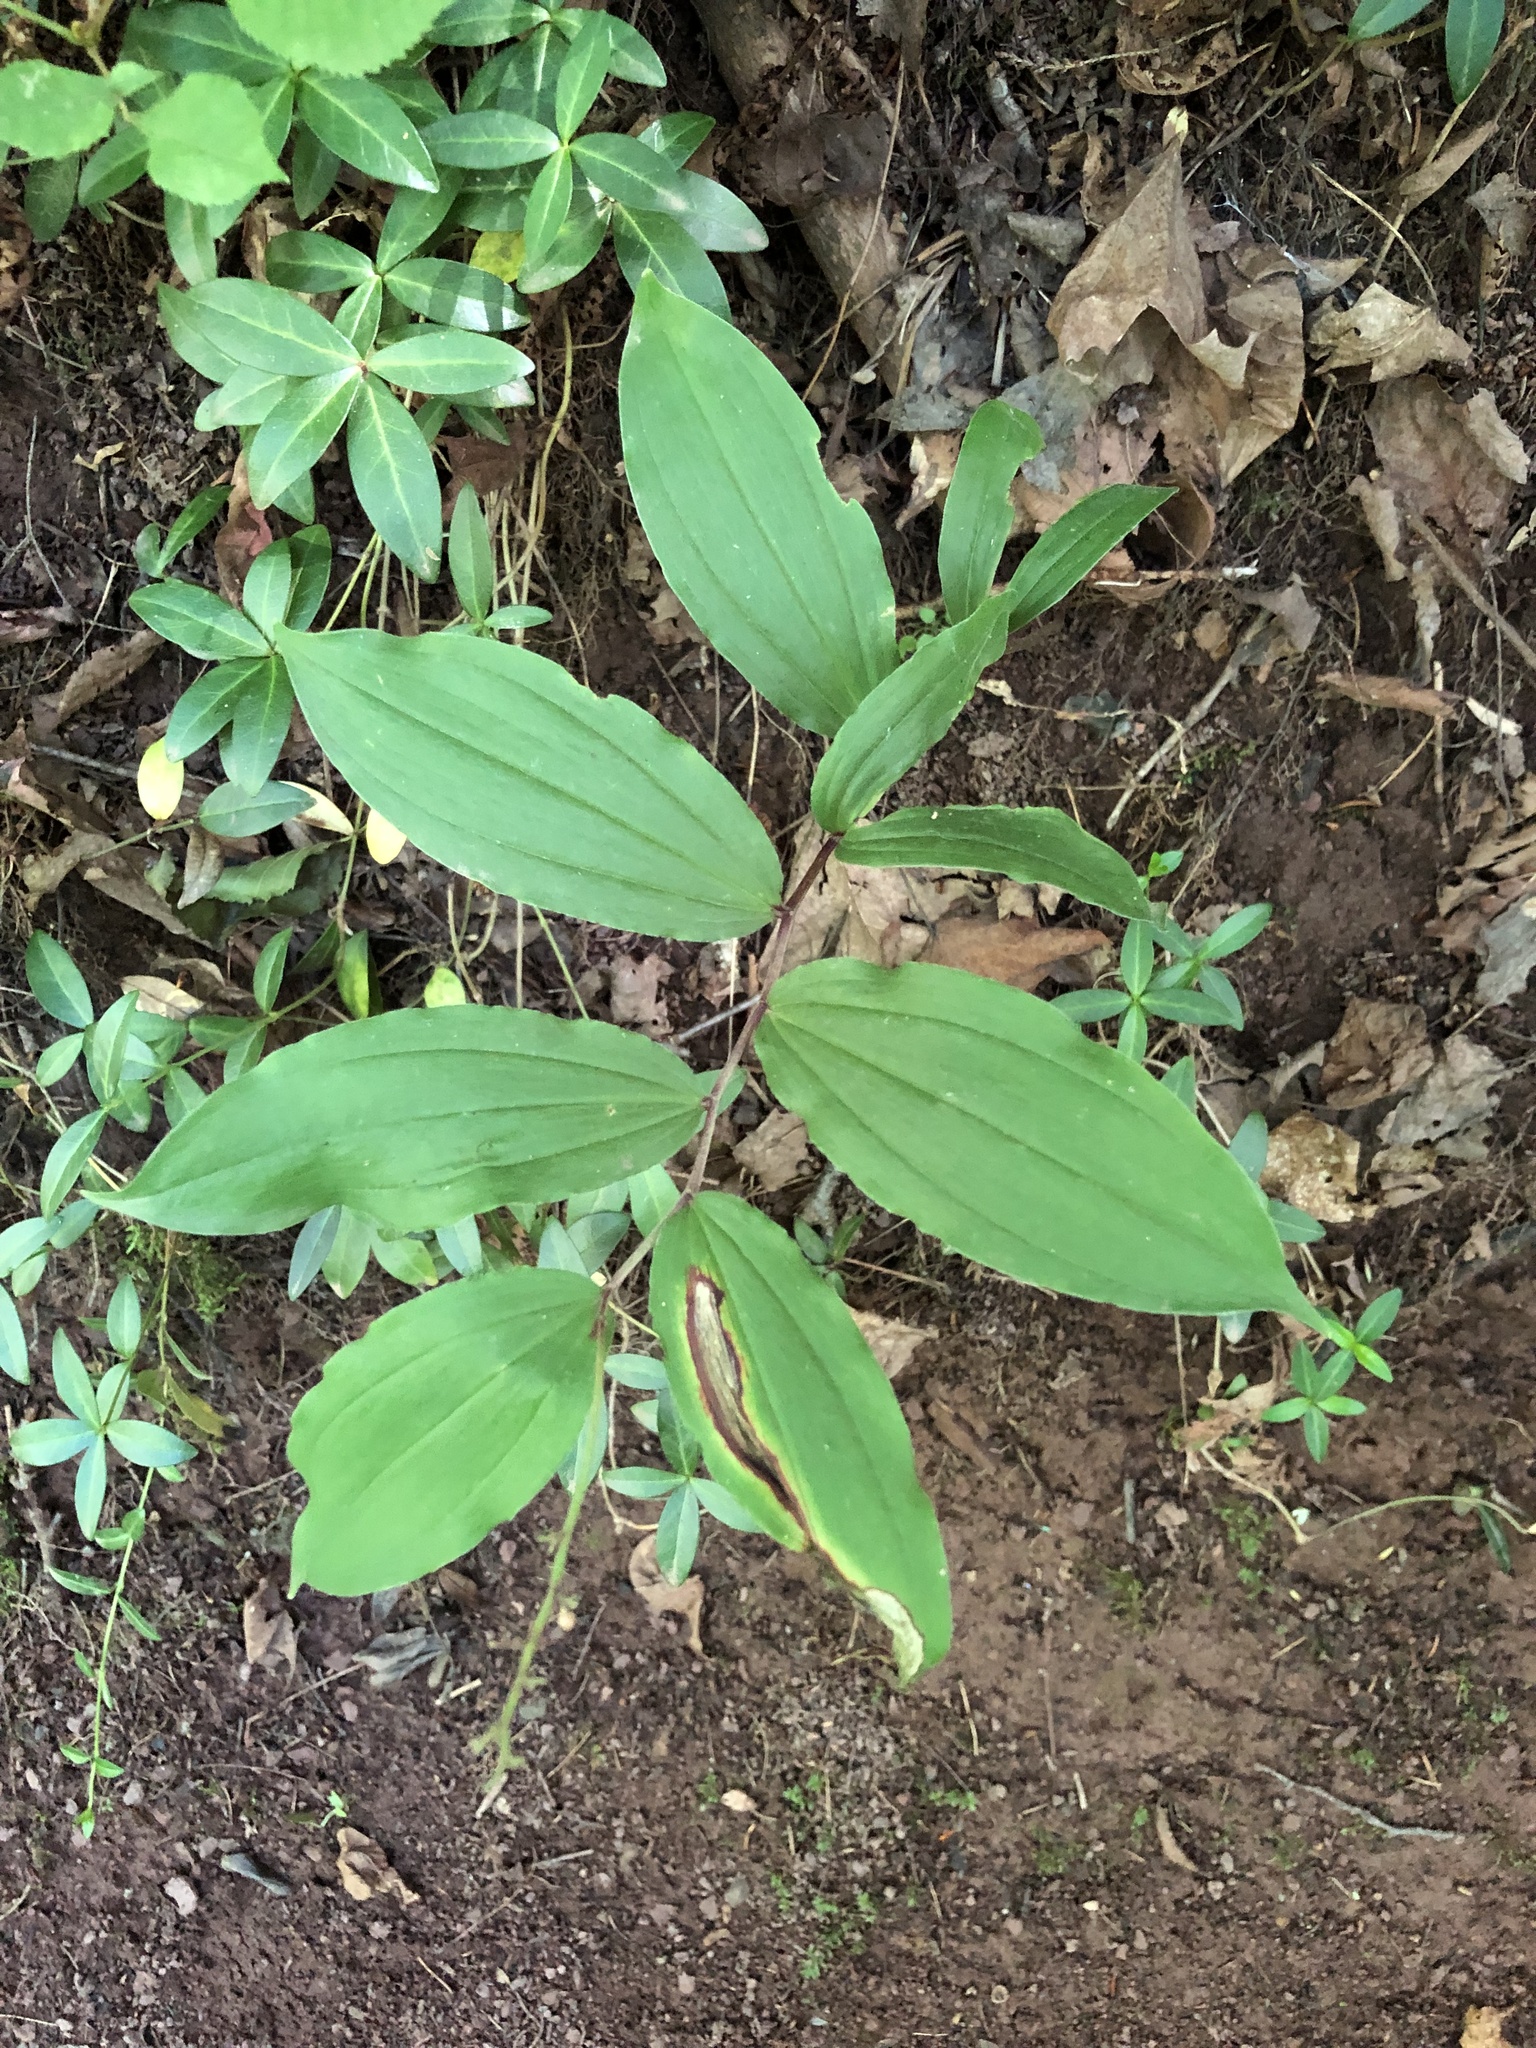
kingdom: Plantae
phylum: Tracheophyta
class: Liliopsida
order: Asparagales
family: Asparagaceae
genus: Maianthemum
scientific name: Maianthemum racemosum
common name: False spikenard
